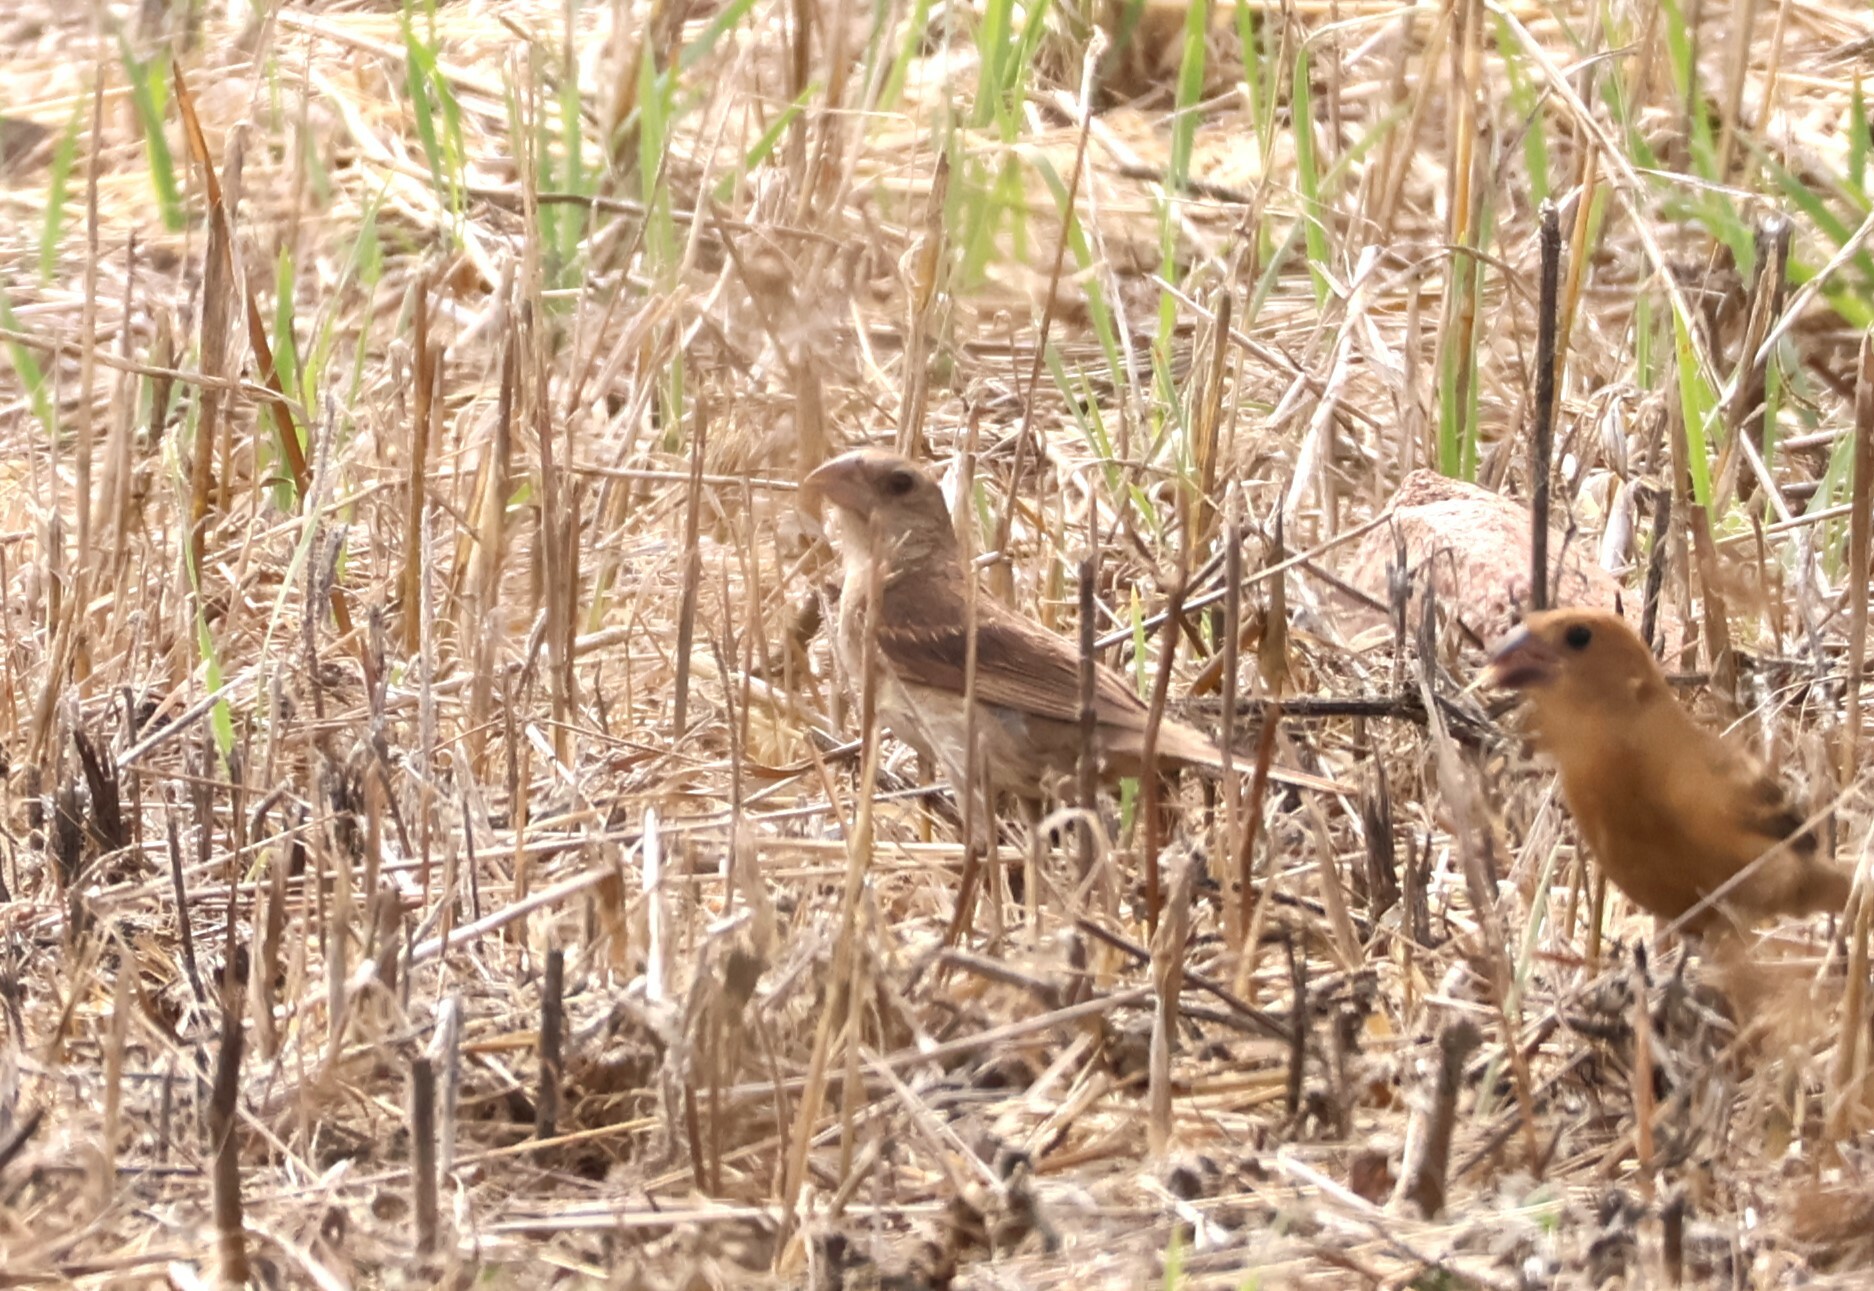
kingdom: Animalia
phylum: Chordata
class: Aves
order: Passeriformes
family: Cardinalidae
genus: Passerina
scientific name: Passerina caerulea
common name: Blue grosbeak
